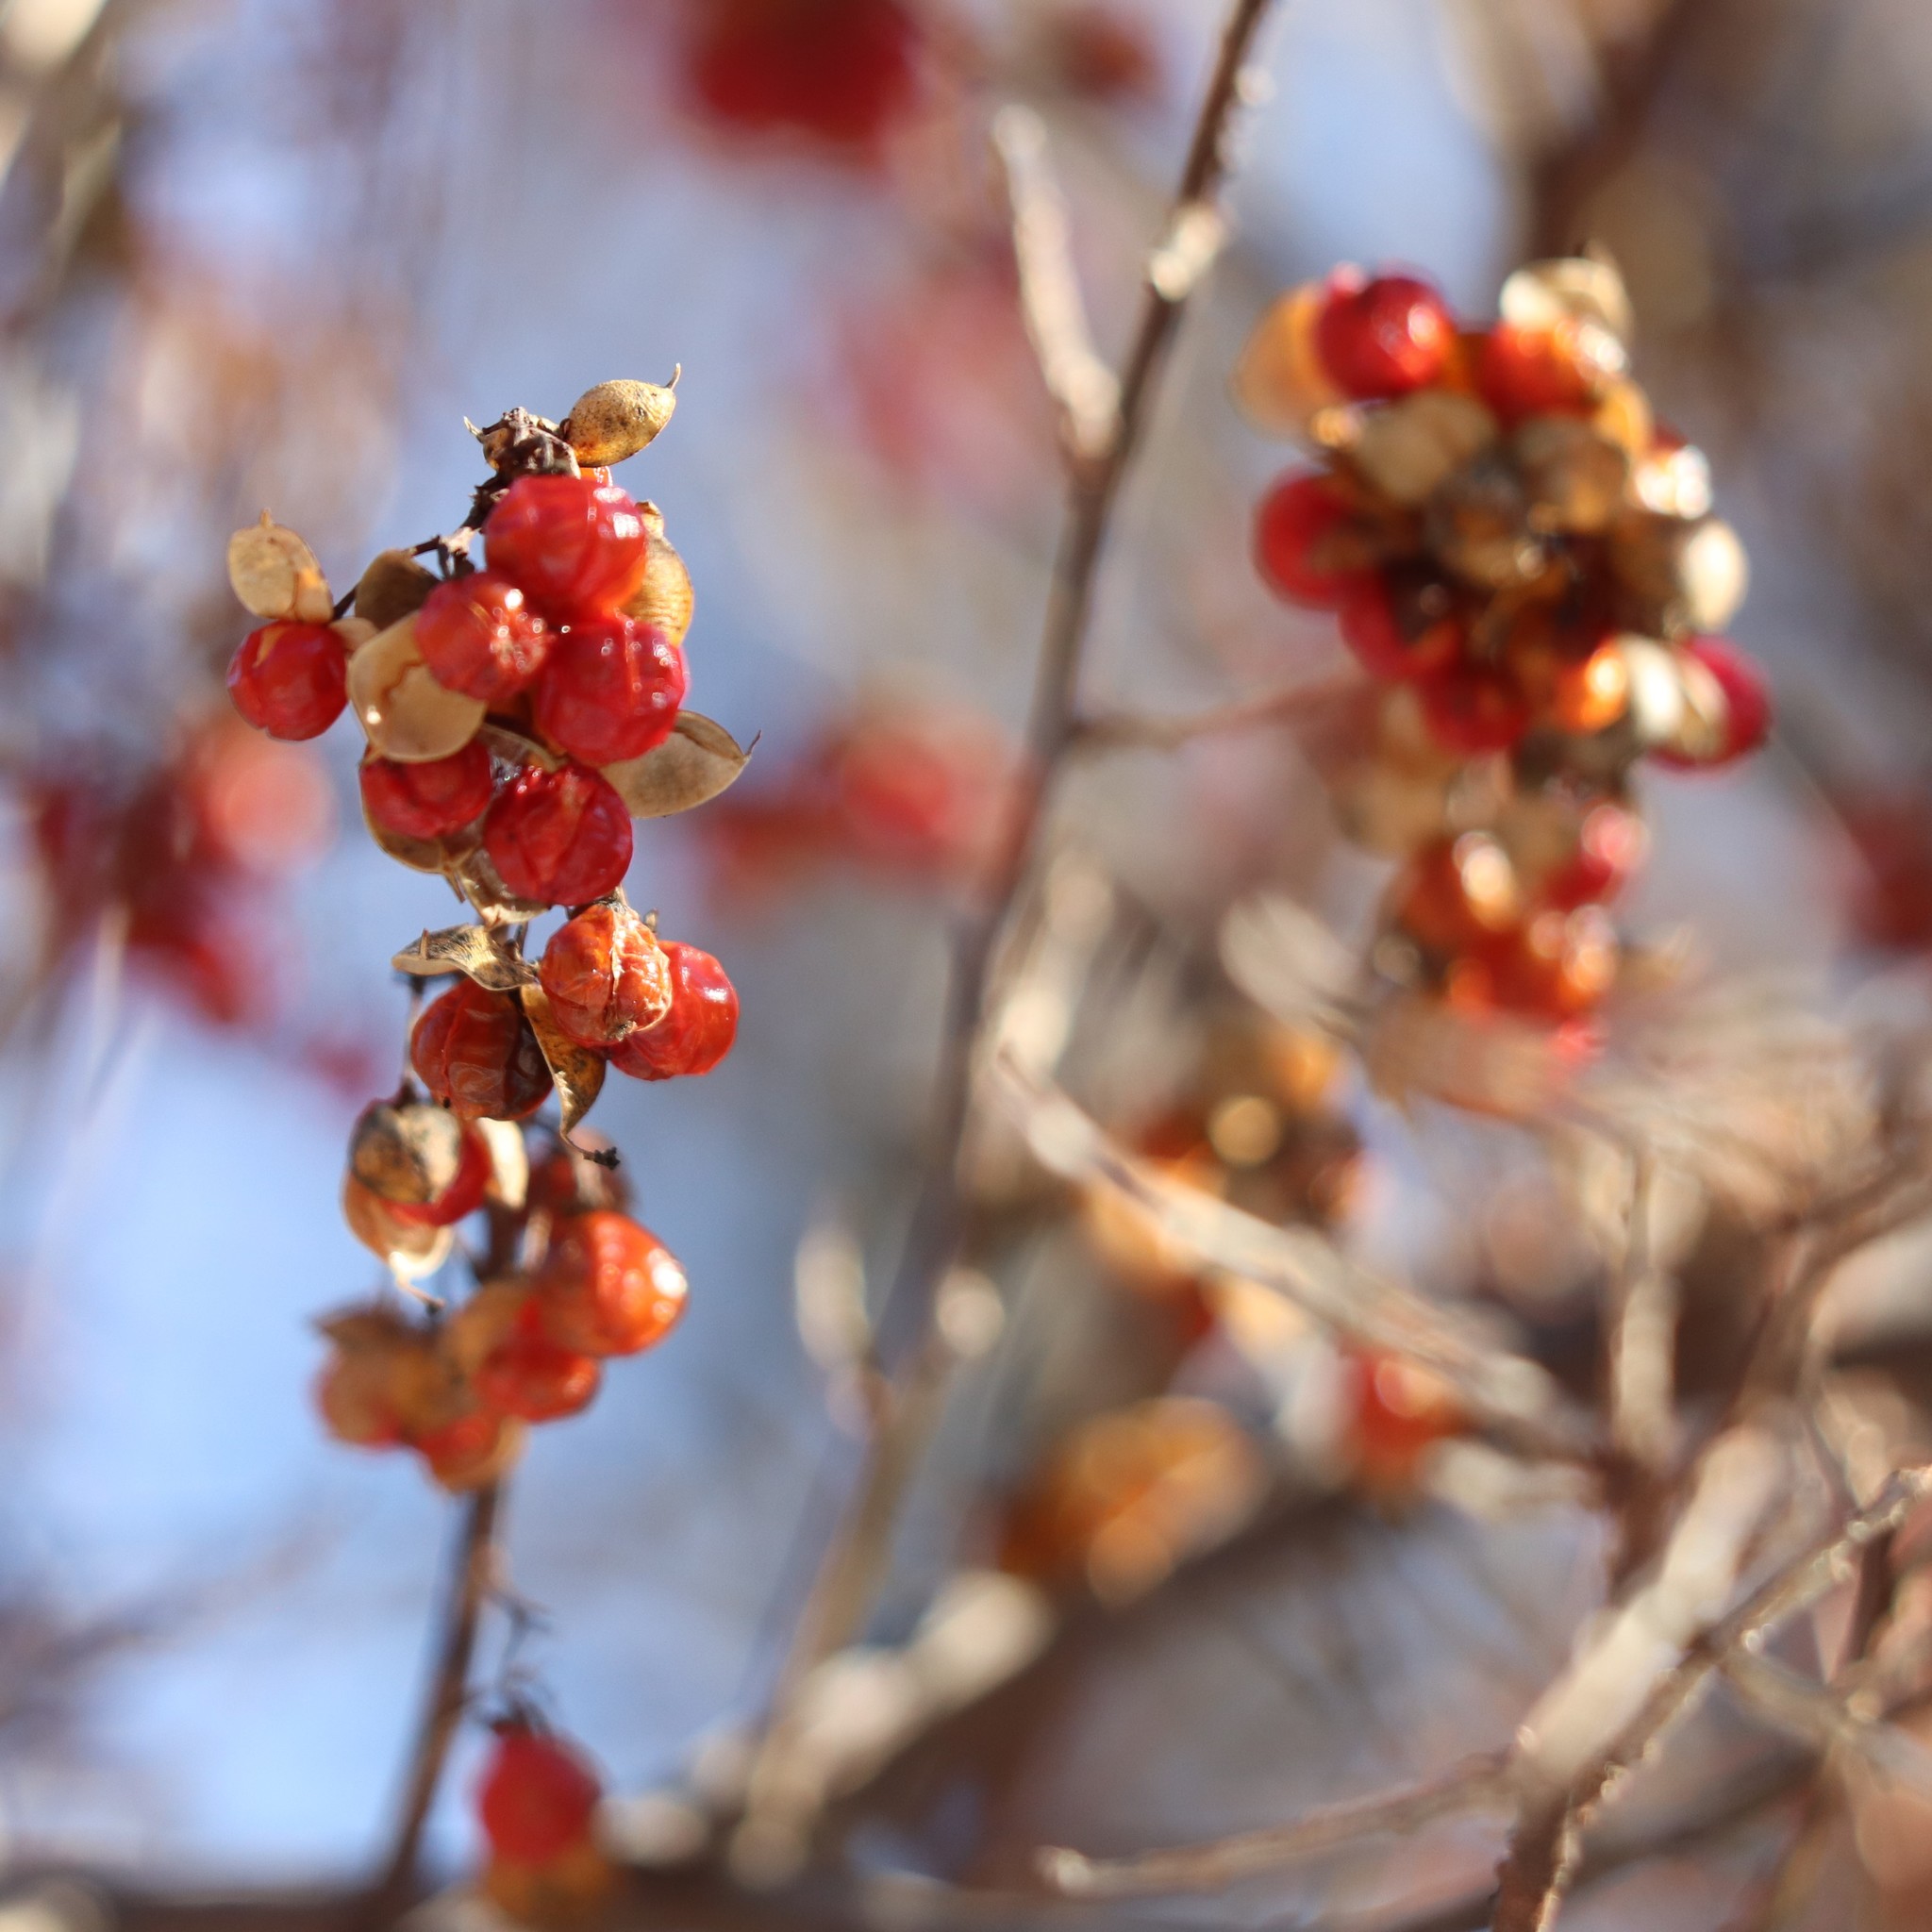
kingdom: Plantae
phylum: Tracheophyta
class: Magnoliopsida
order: Celastrales
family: Celastraceae
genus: Celastrus
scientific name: Celastrus orbiculatus
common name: Oriental bittersweet
